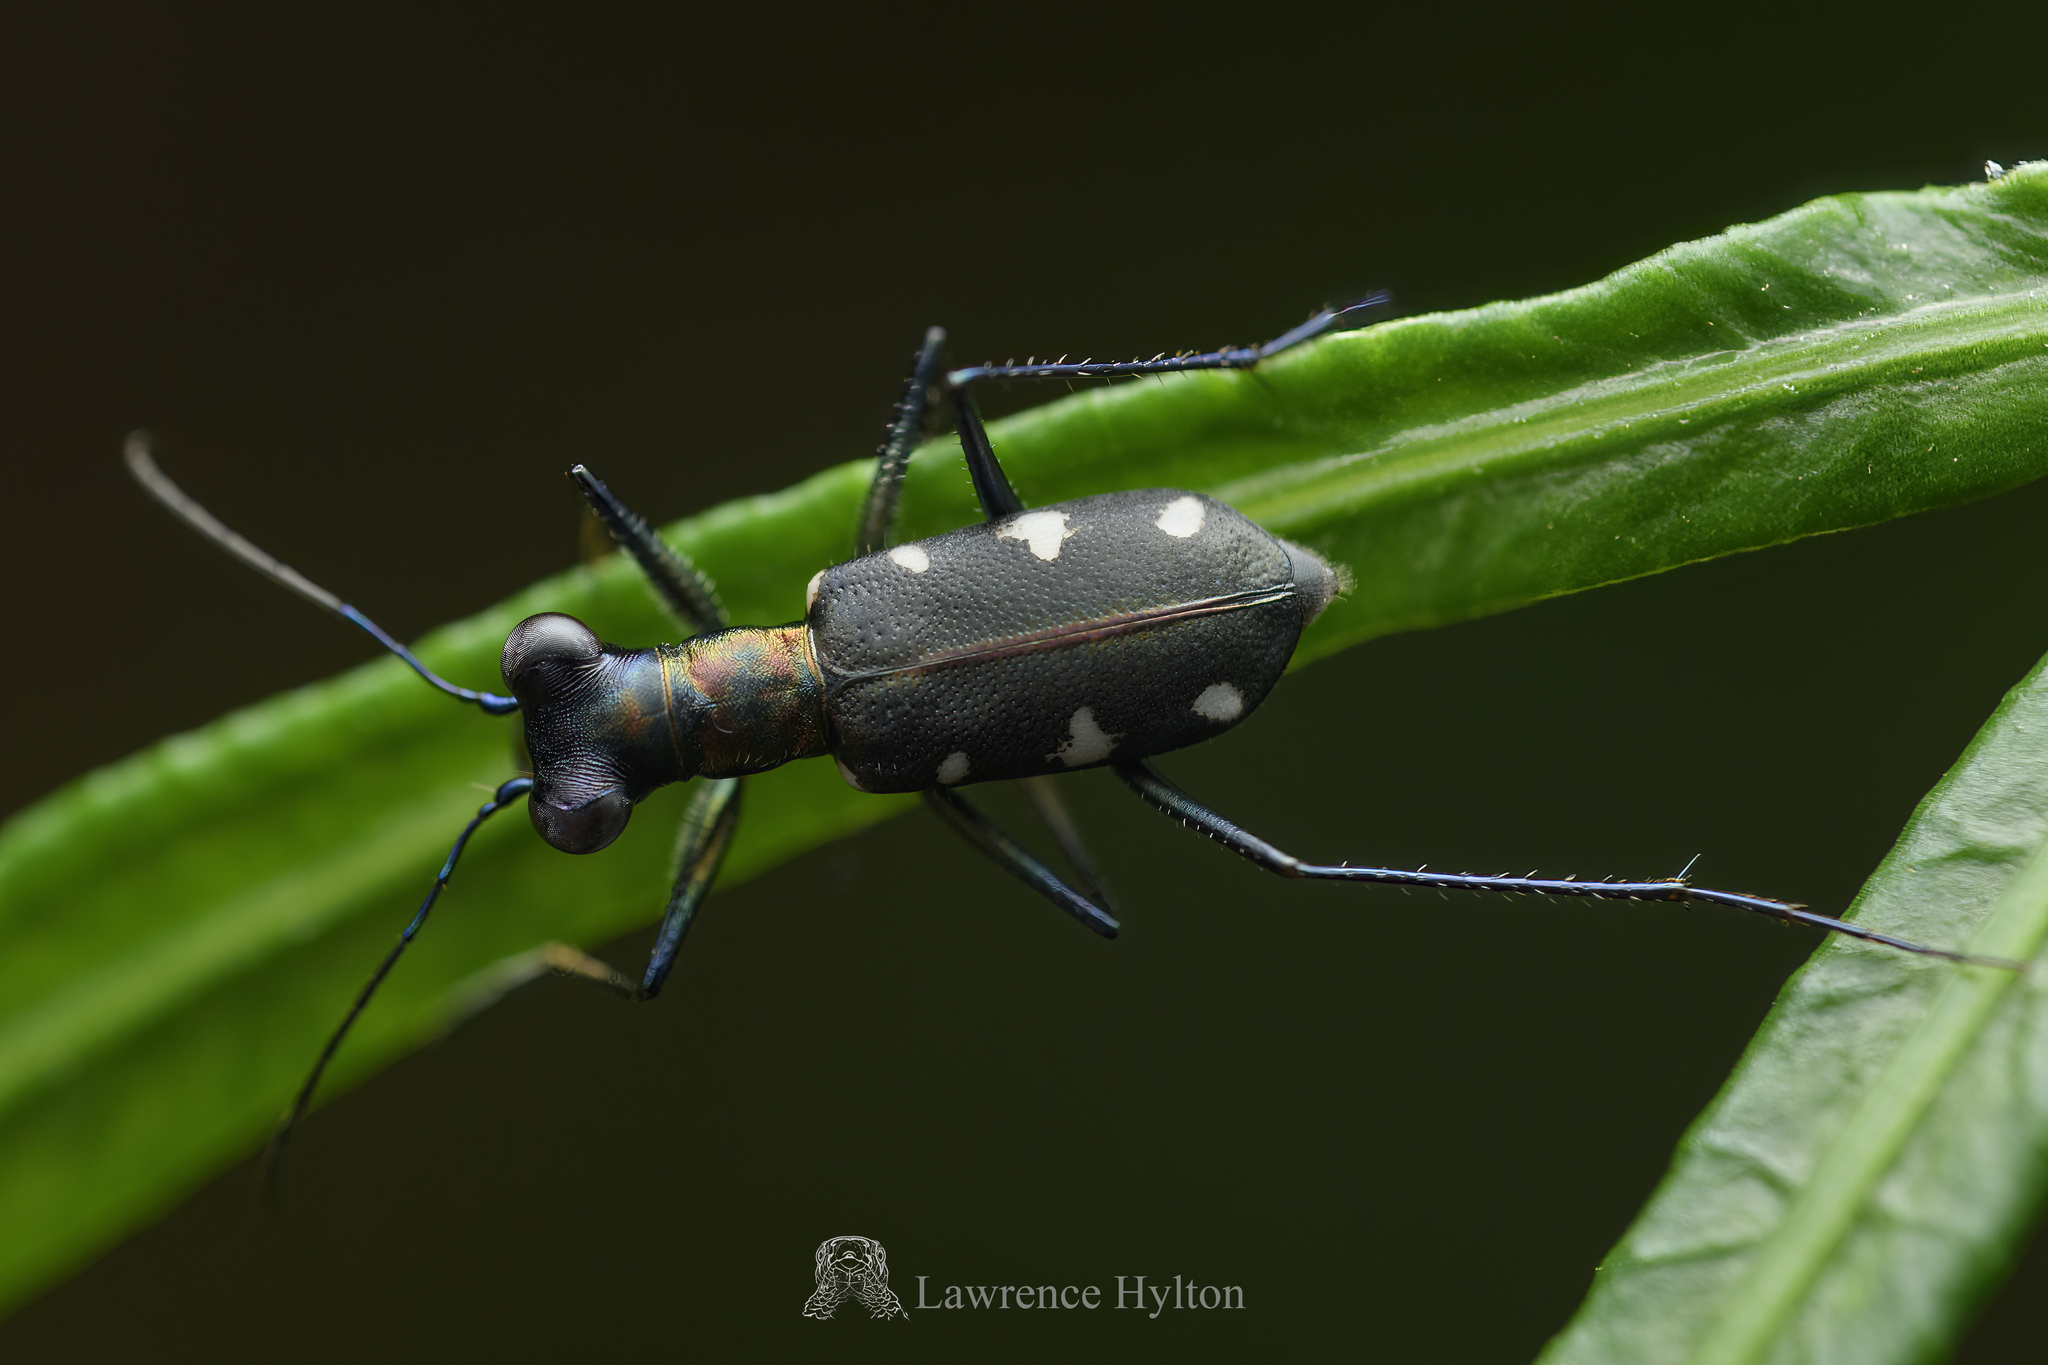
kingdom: Animalia
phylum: Arthropoda
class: Insecta
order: Coleoptera
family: Carabidae
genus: Cylindera
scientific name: Cylindera decolorata
